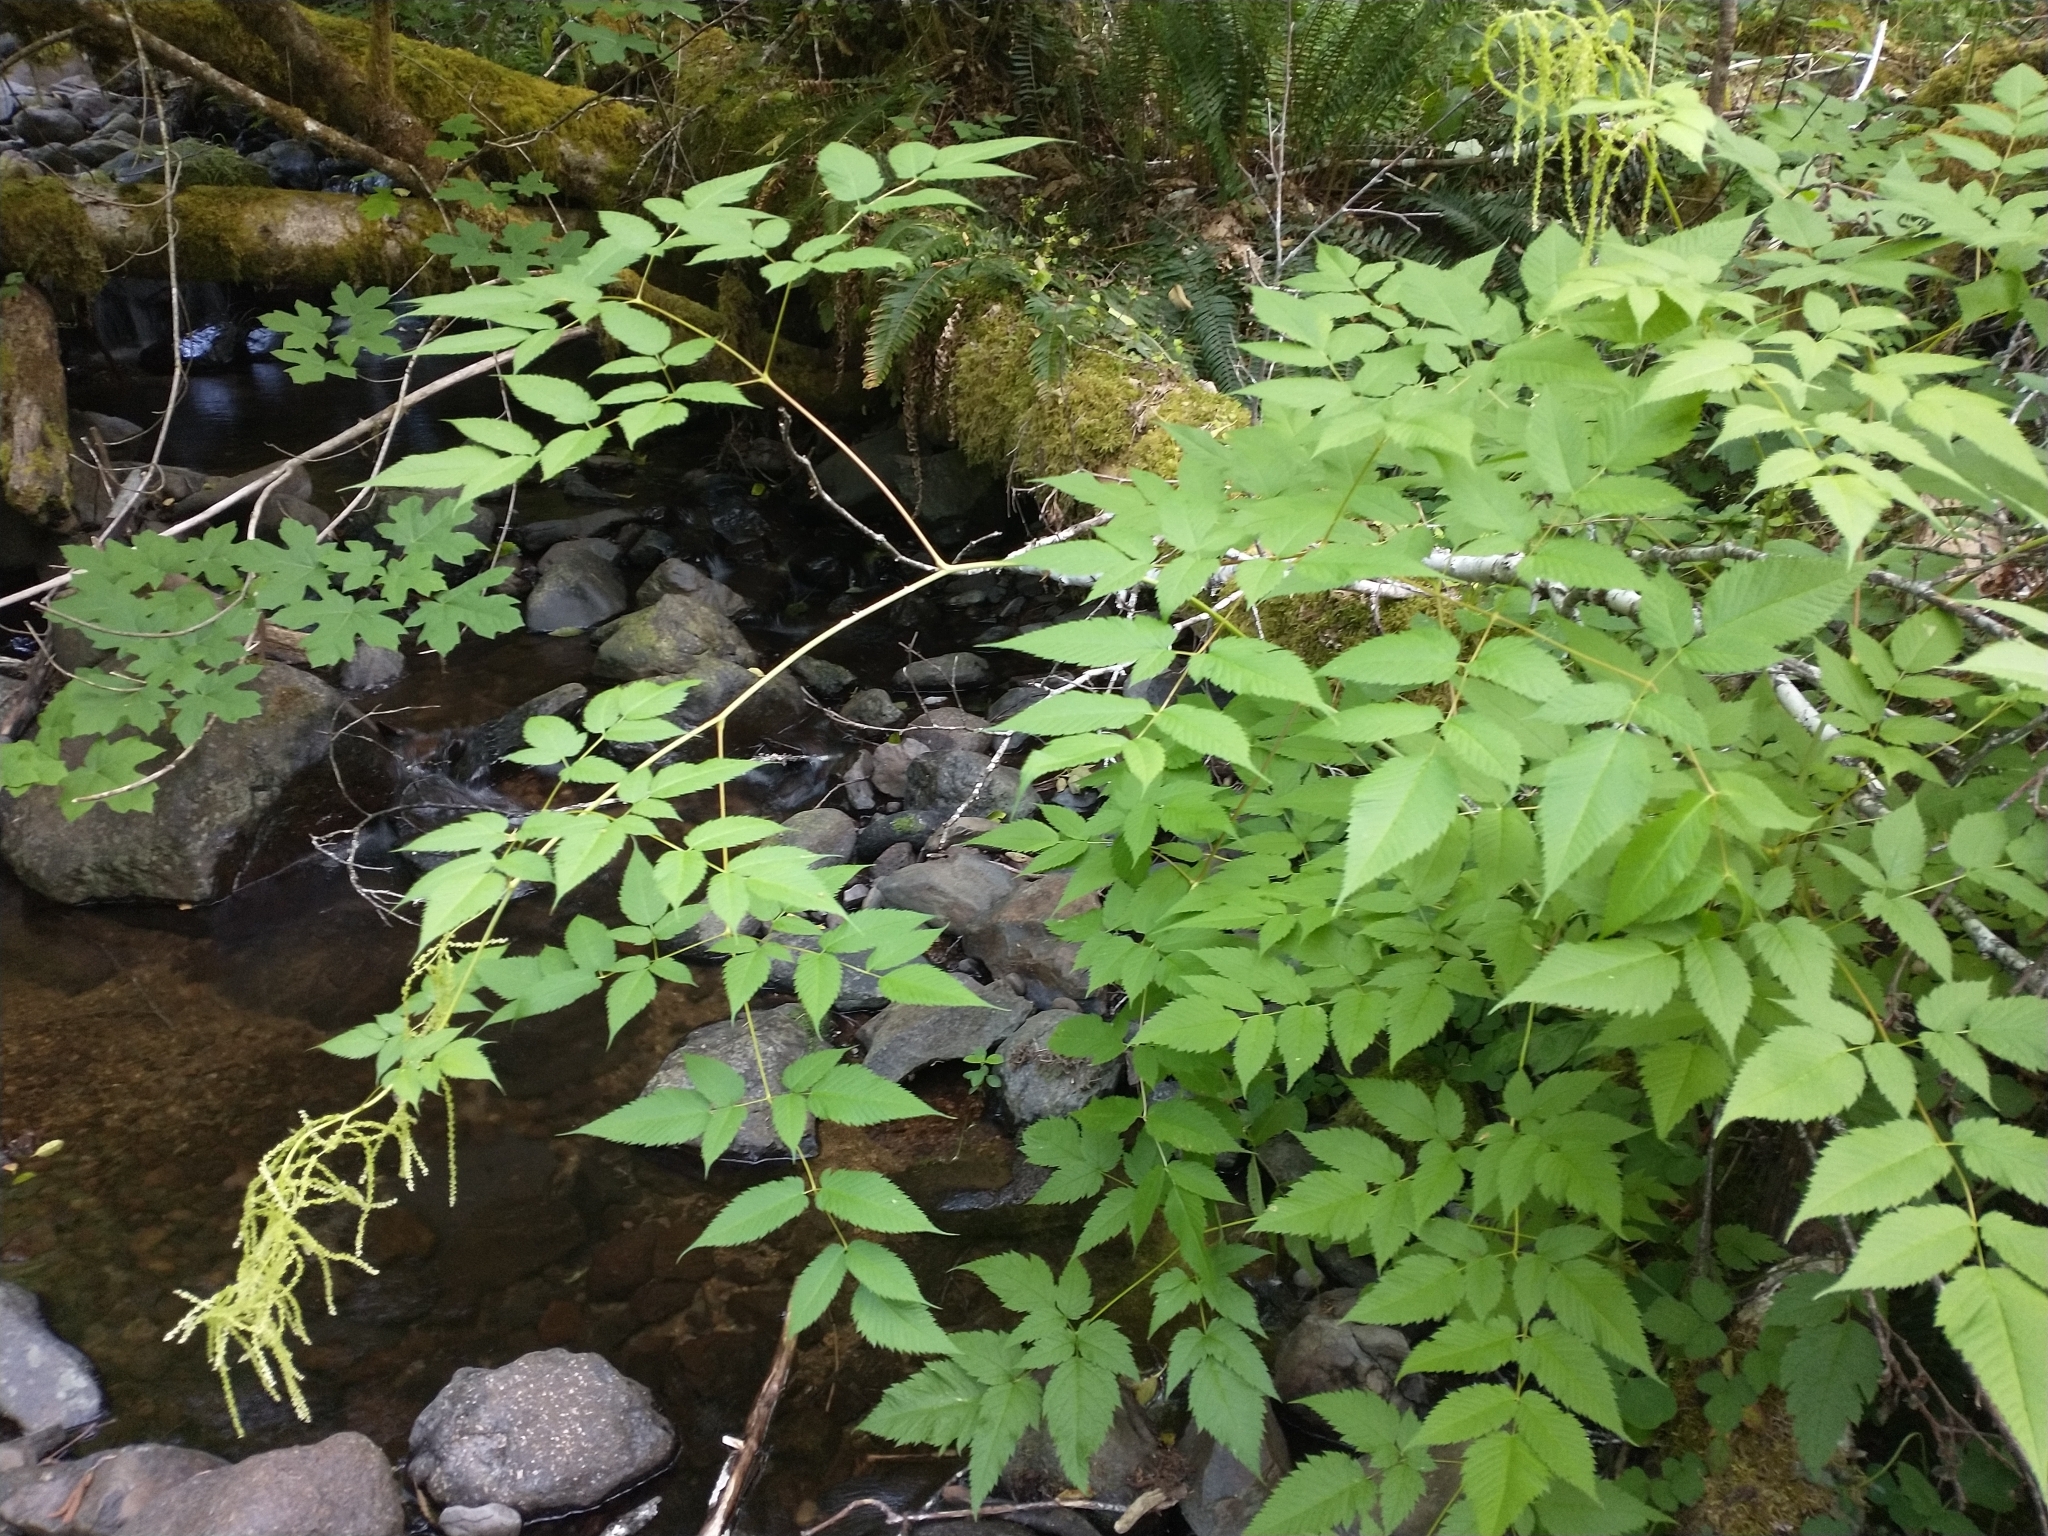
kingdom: Plantae
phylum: Tracheophyta
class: Magnoliopsida
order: Rosales
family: Rosaceae
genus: Aruncus
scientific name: Aruncus dioicus
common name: Buck's-beard
